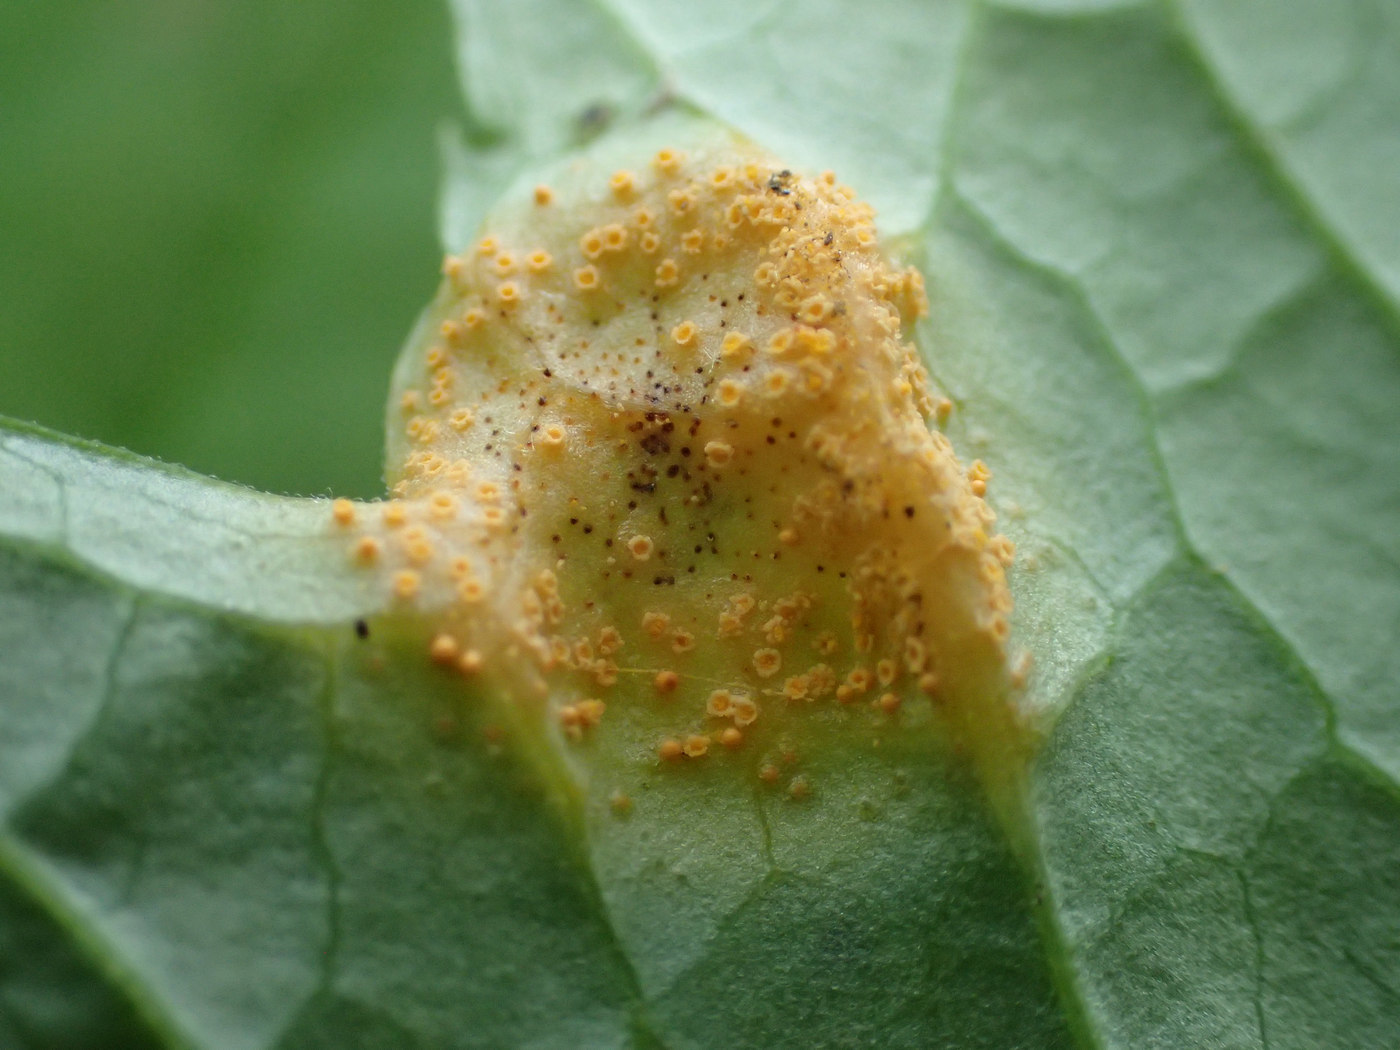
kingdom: Fungi
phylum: Basidiomycota
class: Pucciniomycetes
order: Pucciniales
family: Pucciniaceae
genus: Puccinia
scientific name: Puccinia recondita
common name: Brown rust of wheat
